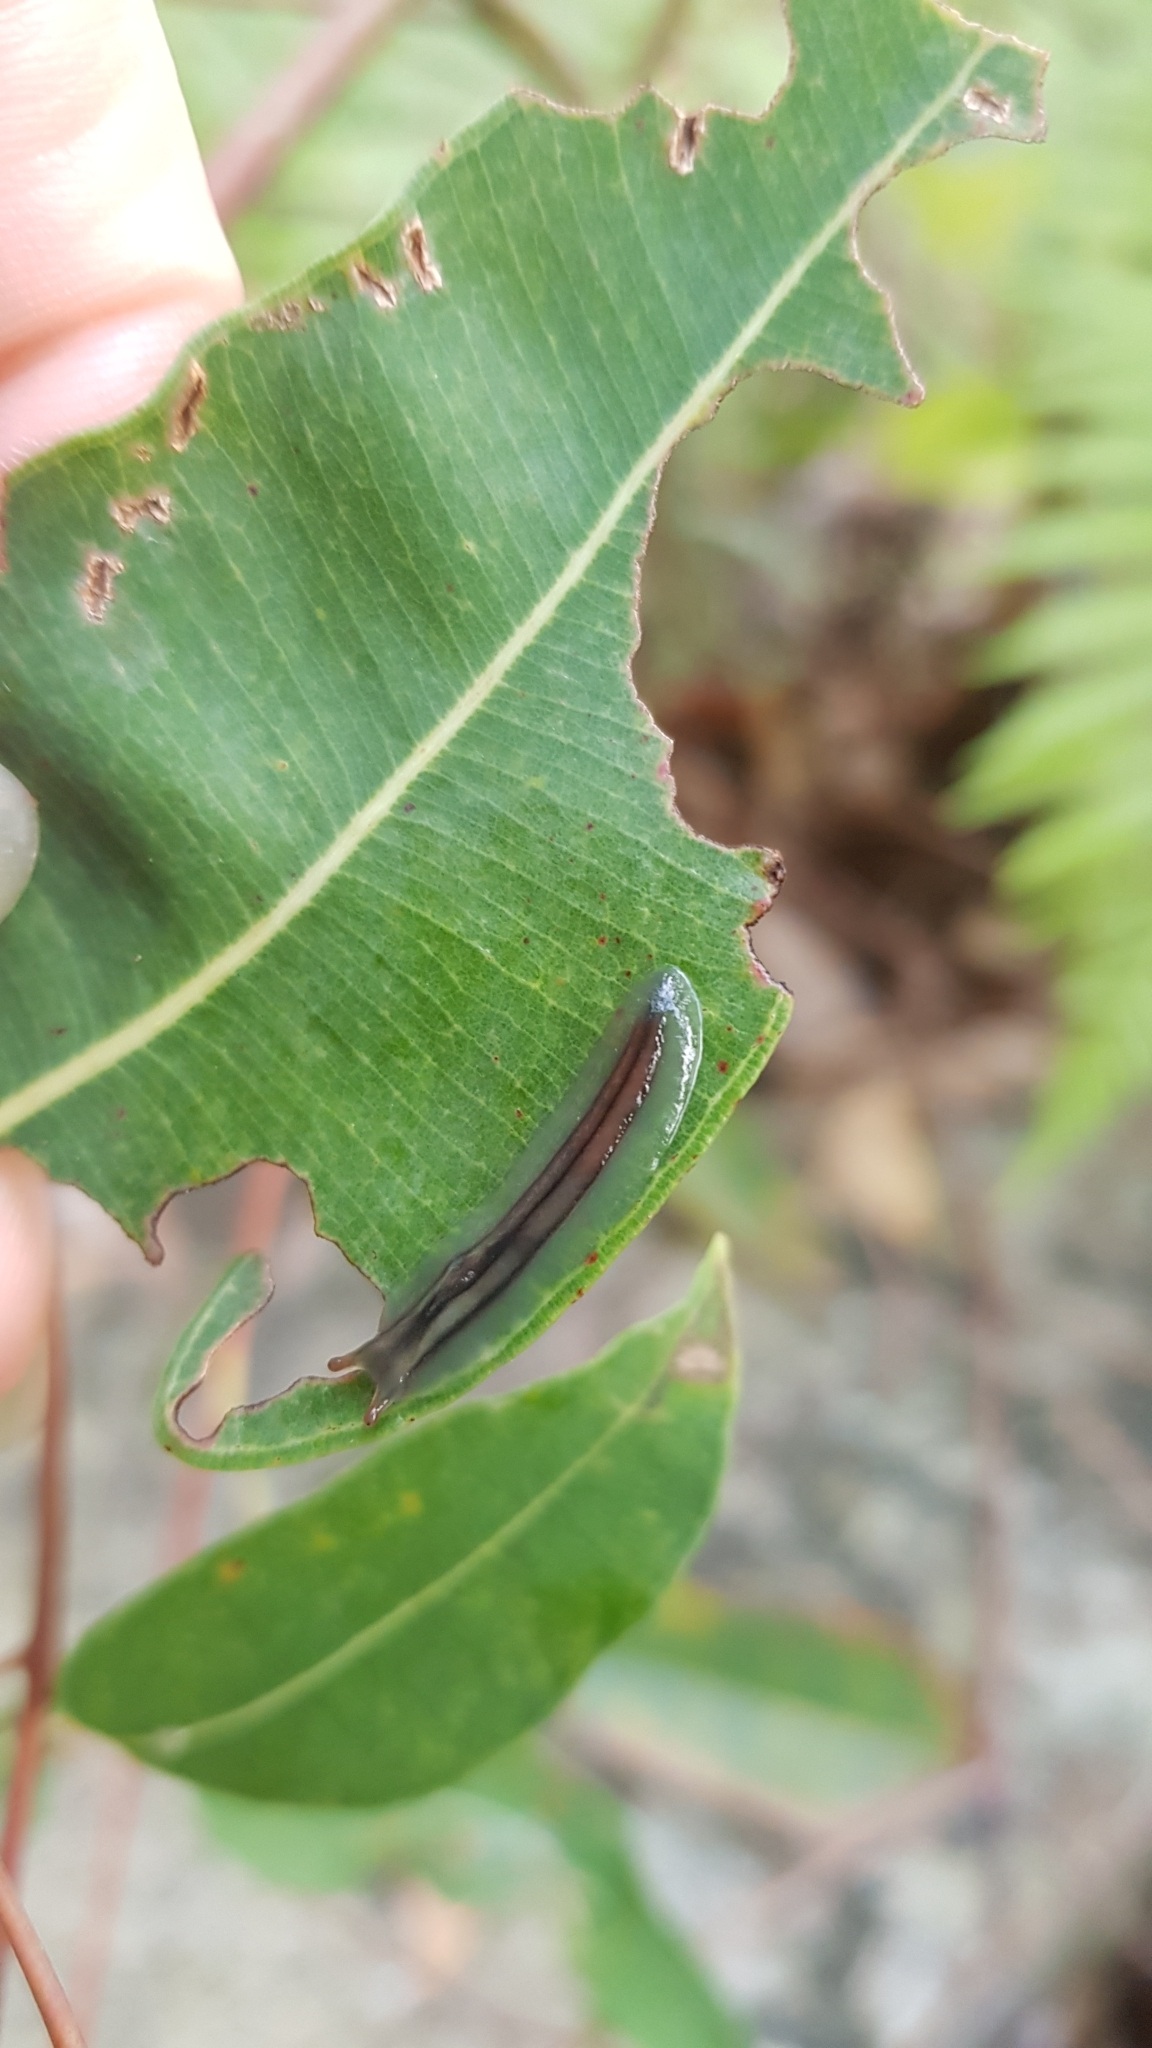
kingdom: Animalia
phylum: Mollusca
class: Gastropoda
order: Stylommatophora
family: Athoracophoridae
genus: Triboniophorus
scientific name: Triboniophorus graeffei
